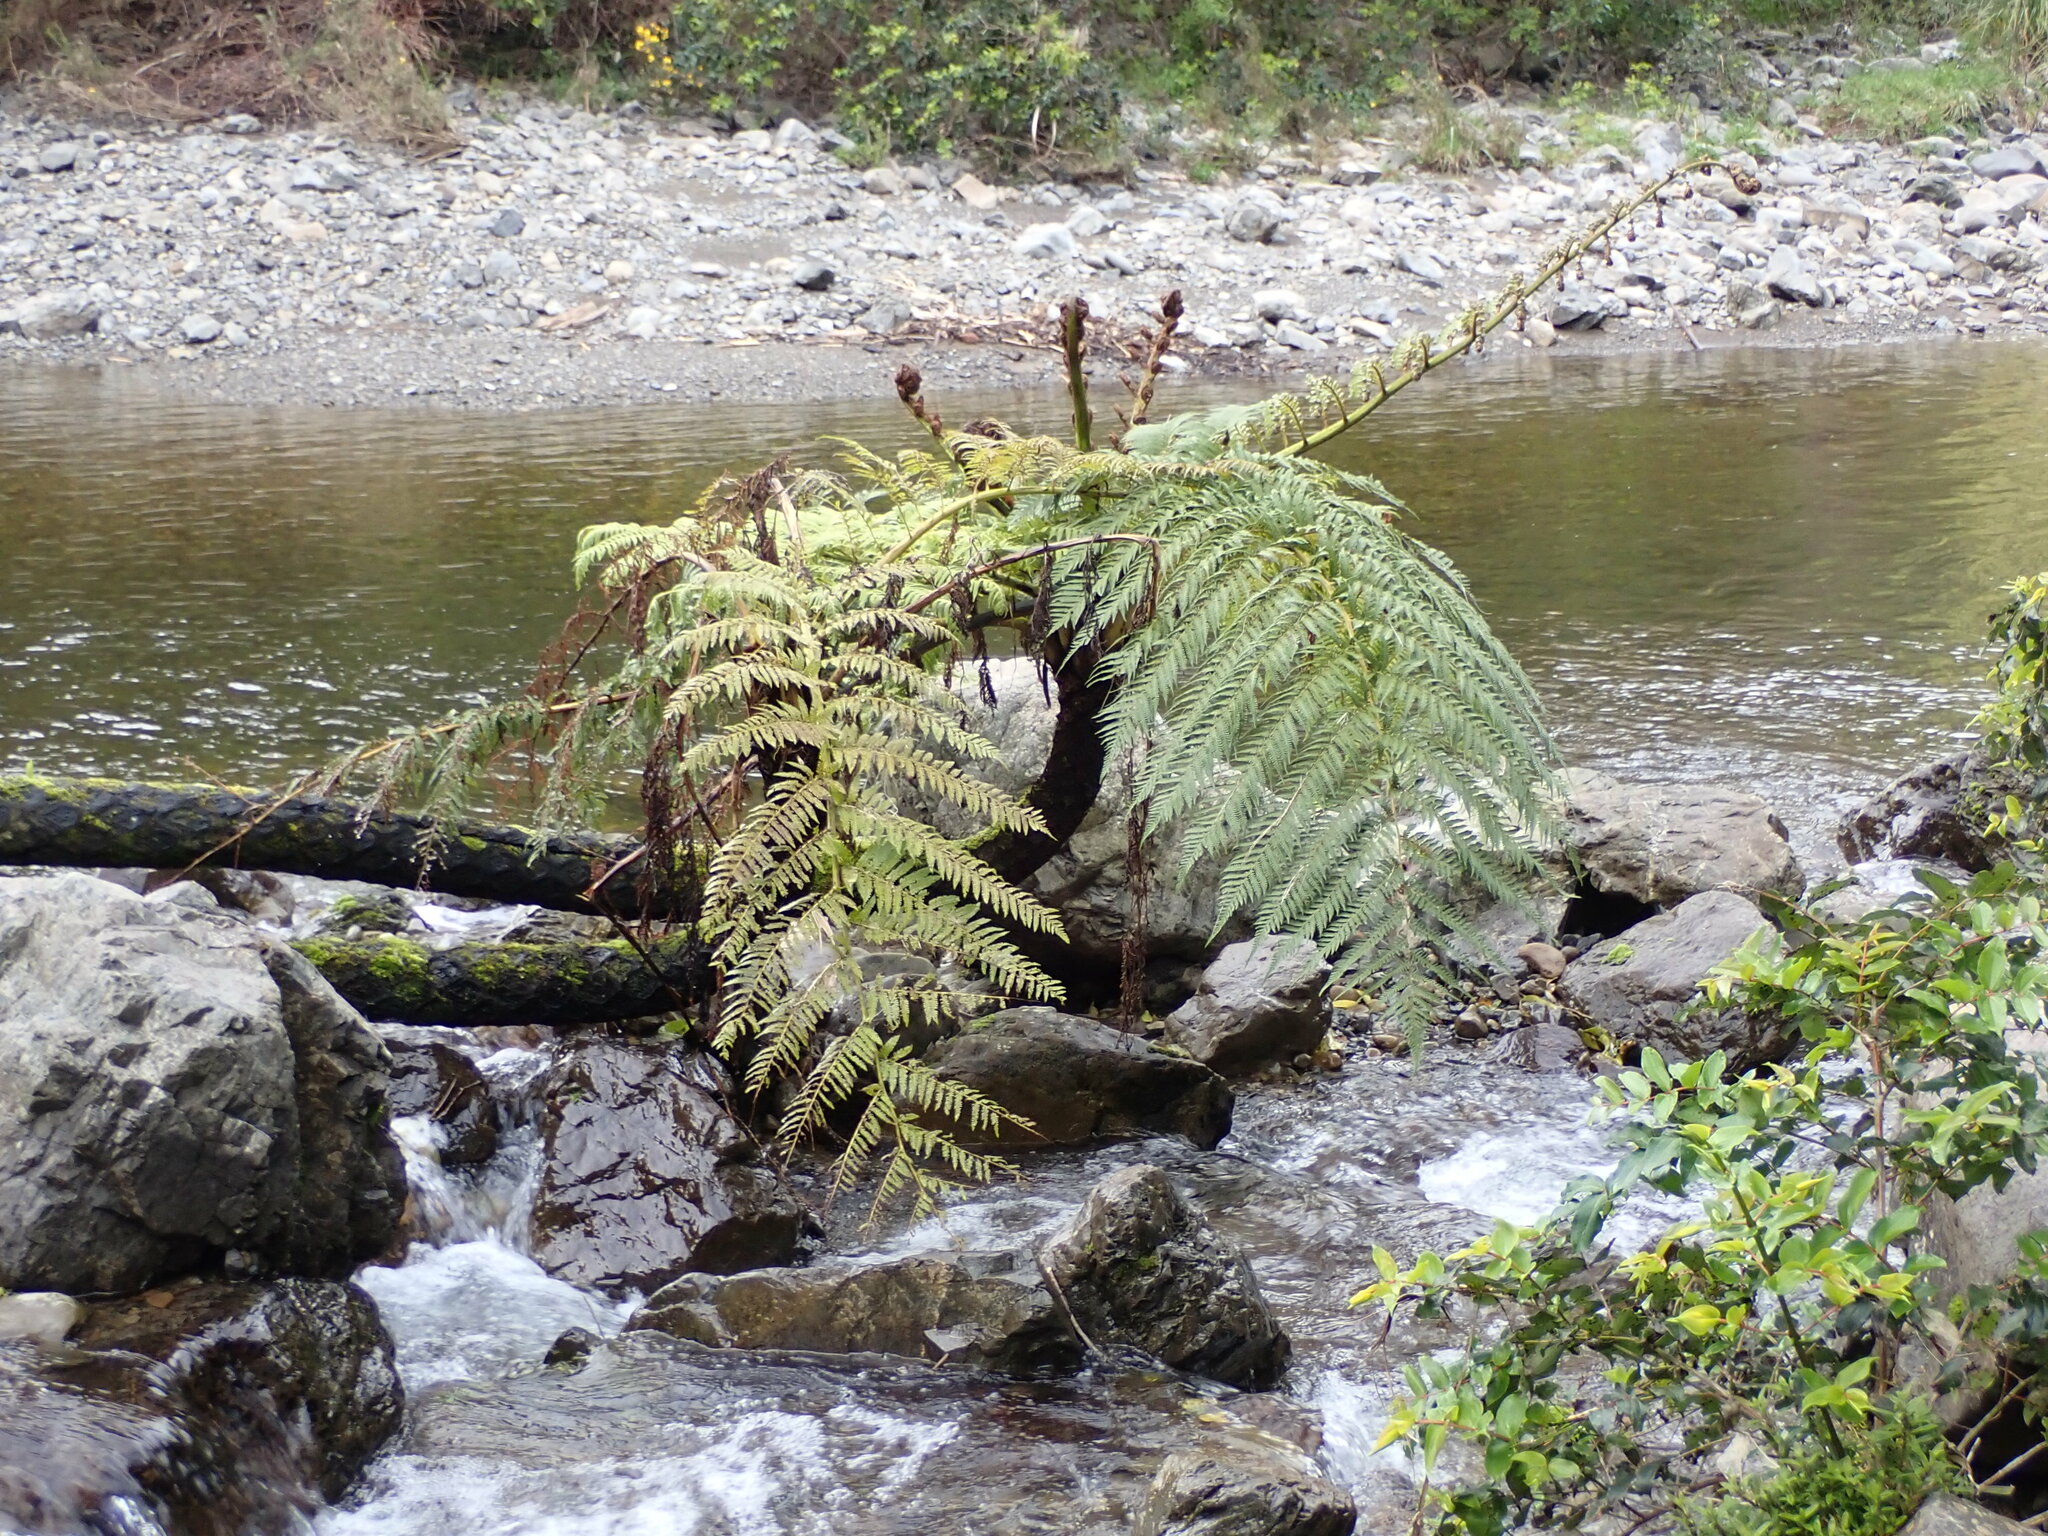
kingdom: Plantae
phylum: Tracheophyta
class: Polypodiopsida
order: Cyatheales
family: Cyatheaceae
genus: Sphaeropteris
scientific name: Sphaeropteris medullaris
